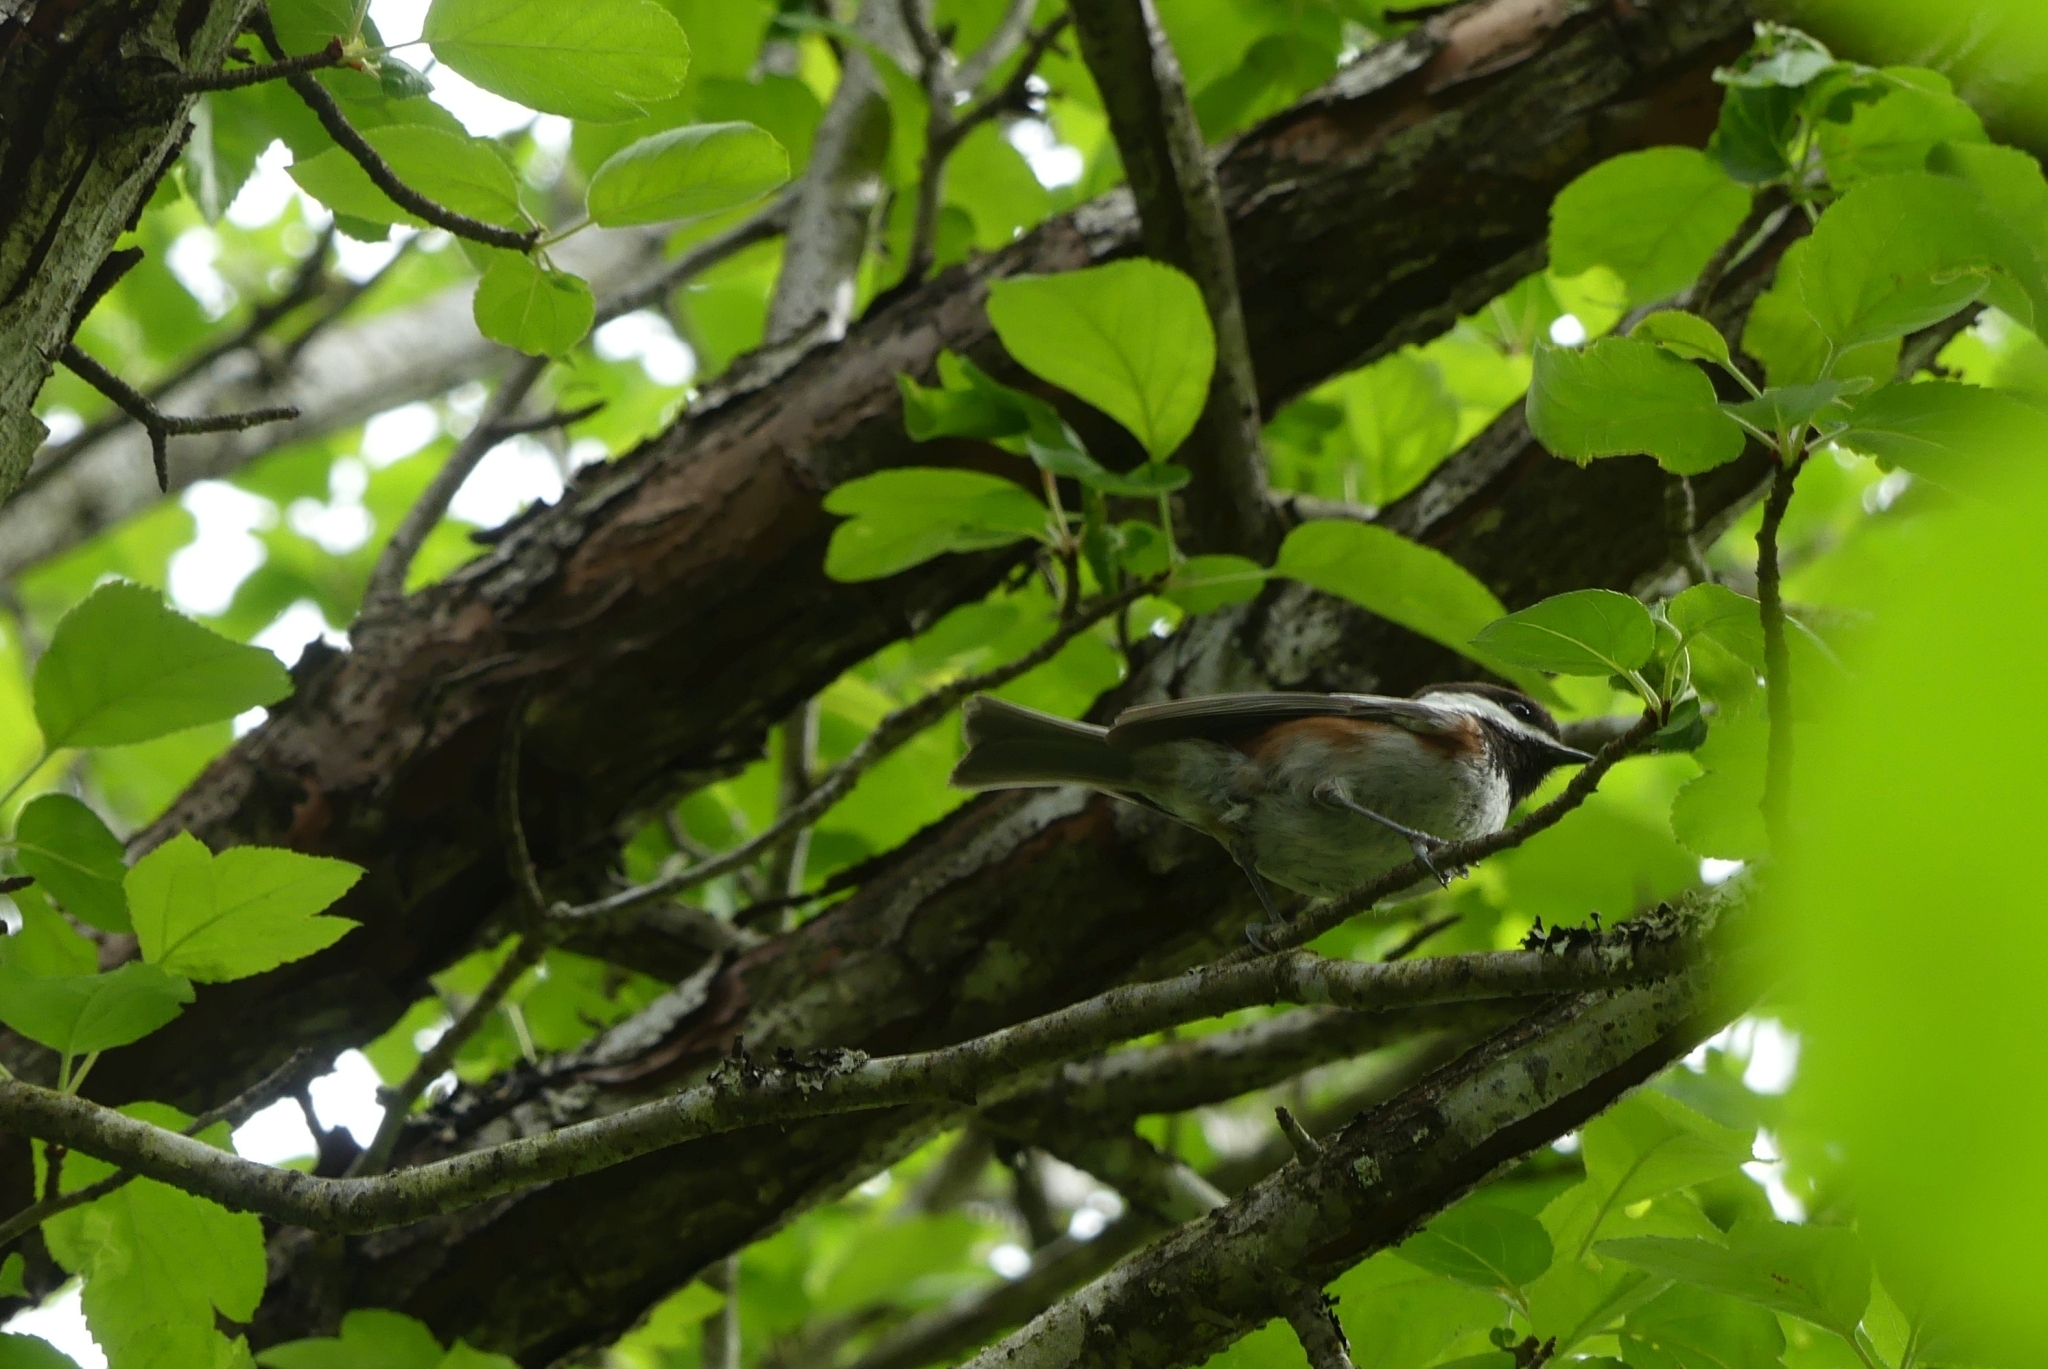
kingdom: Animalia
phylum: Chordata
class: Aves
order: Passeriformes
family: Paridae
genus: Poecile
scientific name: Poecile rufescens
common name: Chestnut-backed chickadee
